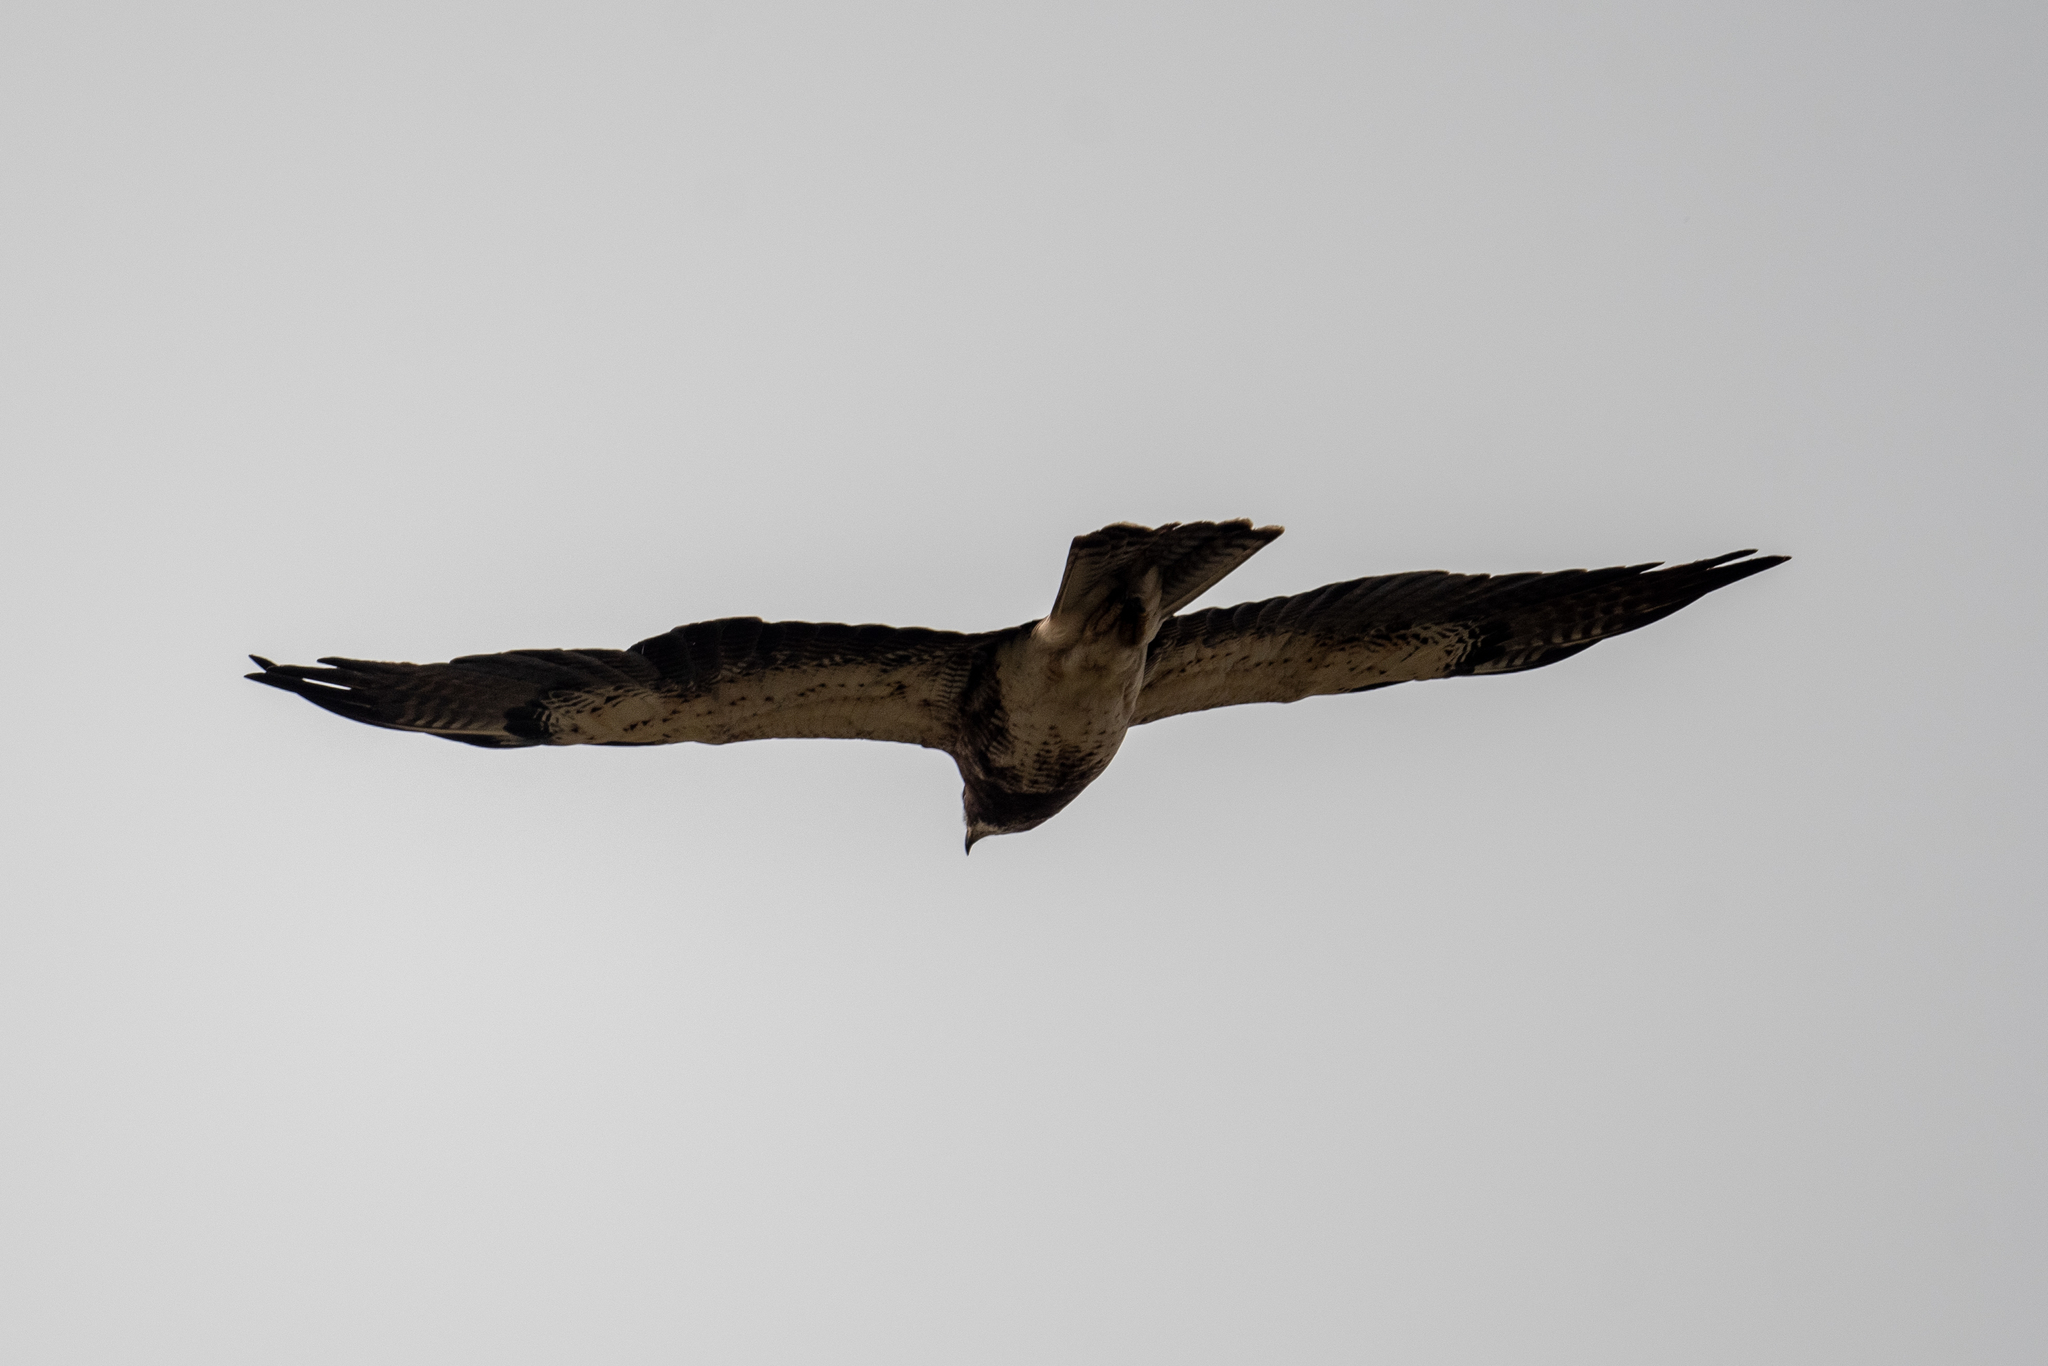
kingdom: Animalia
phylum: Chordata
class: Aves
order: Accipitriformes
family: Accipitridae
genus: Buteo
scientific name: Buteo swainsoni
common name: Swainson's hawk
